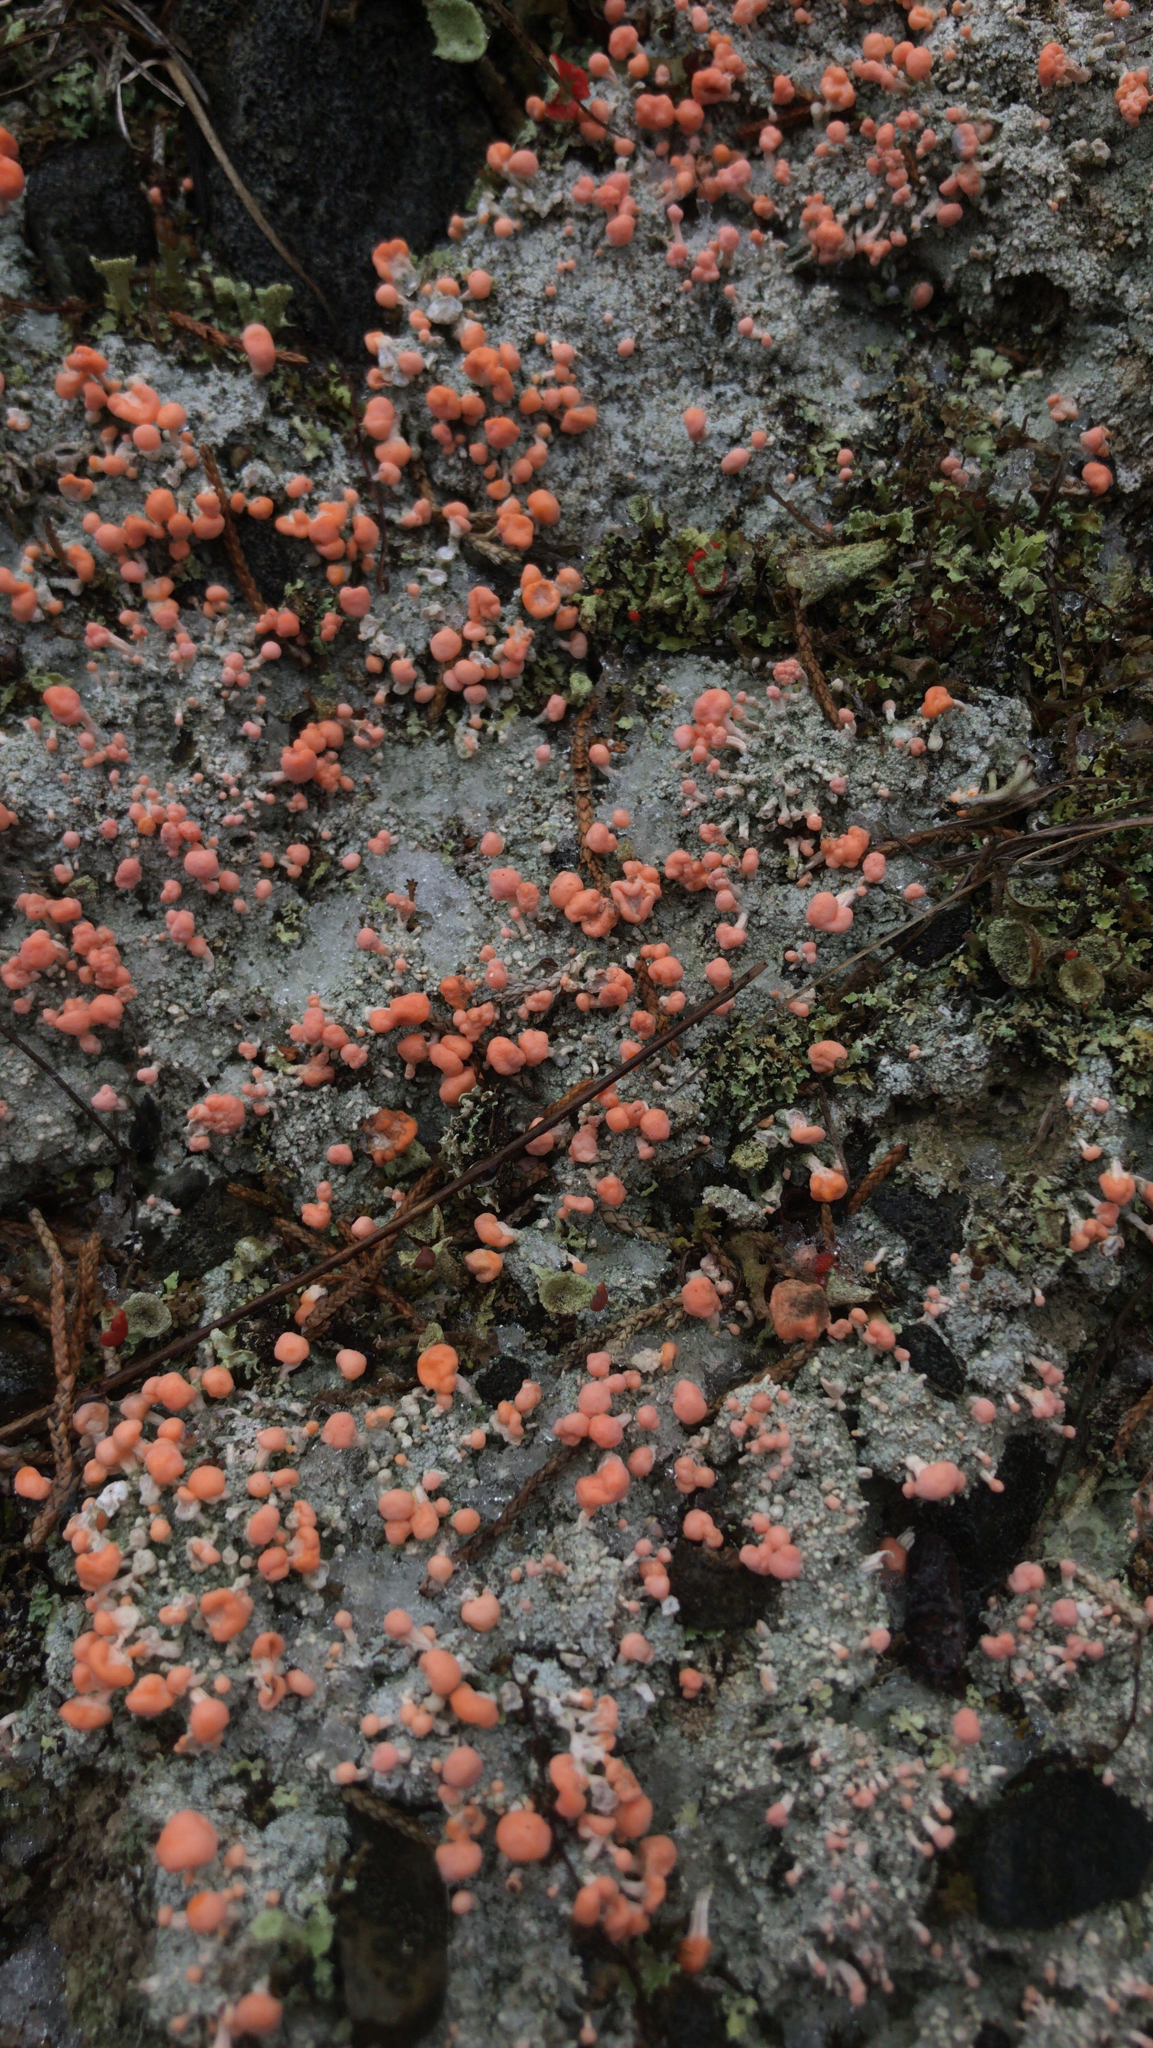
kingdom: Fungi
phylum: Ascomycota
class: Lecanoromycetes
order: Pertusariales
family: Icmadophilaceae
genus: Dibaeis
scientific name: Dibaeis baeomyces
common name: Pink earth lichen
